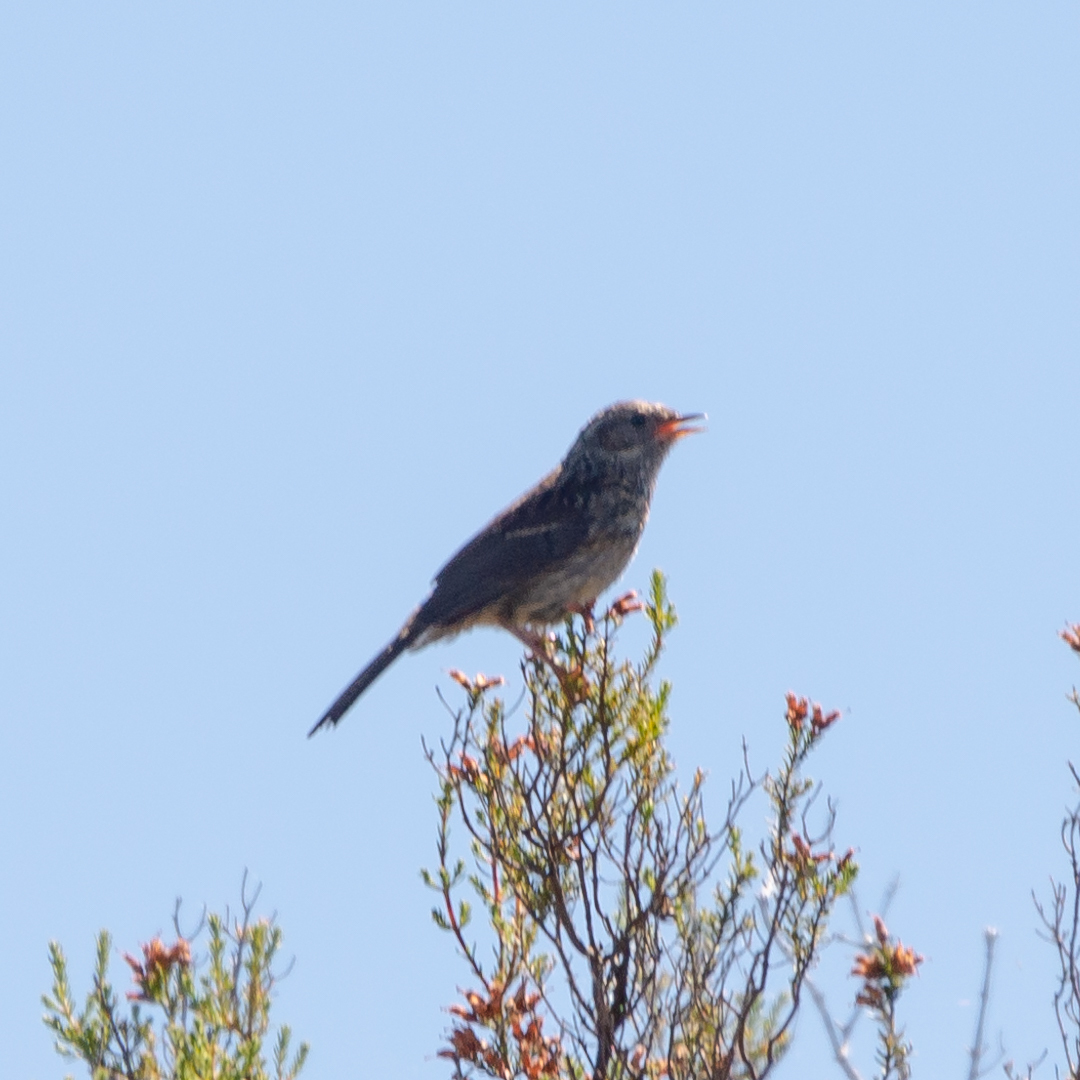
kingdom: Animalia
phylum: Chordata
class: Aves
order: Passeriformes
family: Prunellidae
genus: Prunella
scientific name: Prunella modularis
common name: Dunnock
